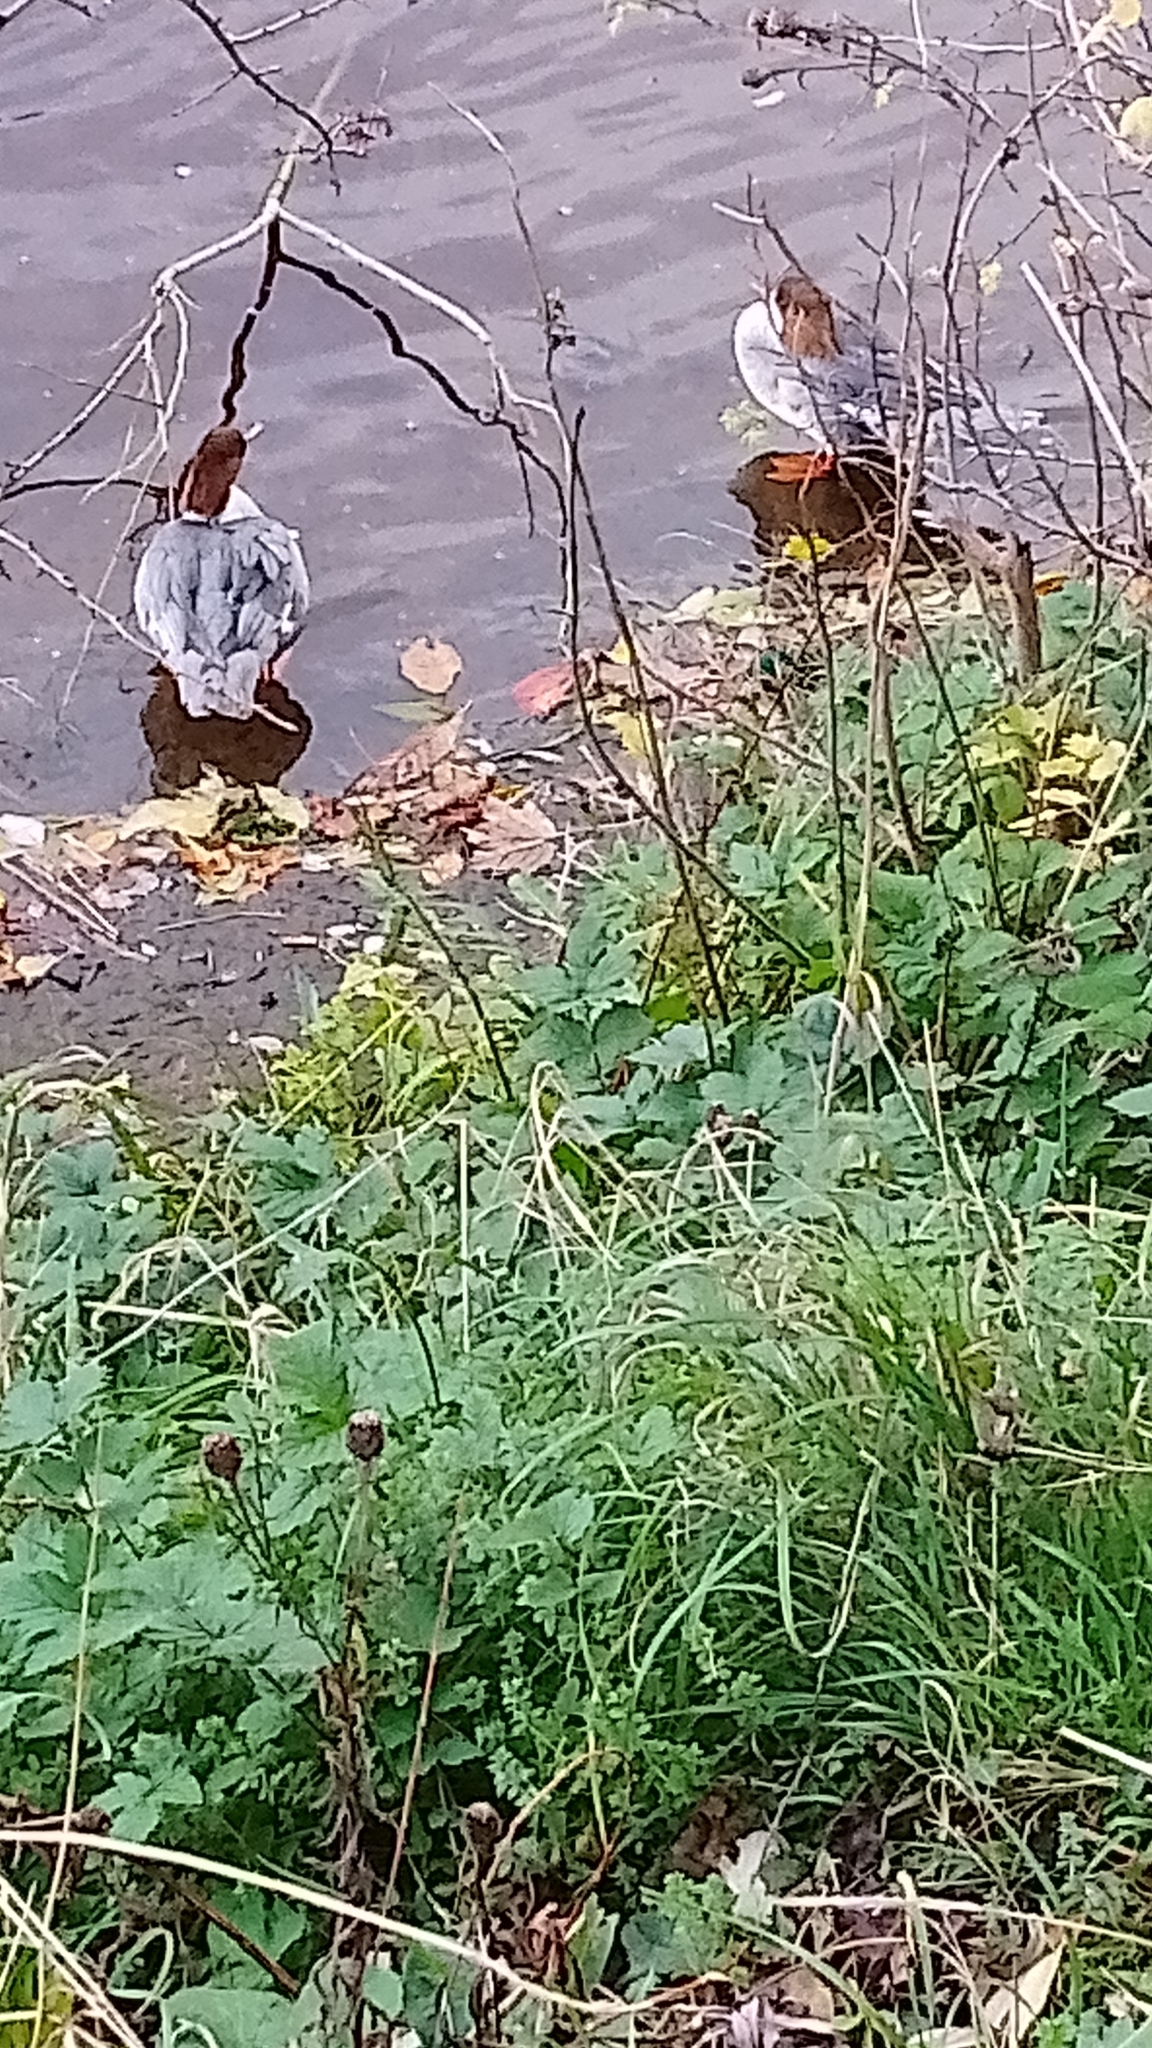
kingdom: Animalia
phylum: Chordata
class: Aves
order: Anseriformes
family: Anatidae
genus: Mergus
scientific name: Mergus merganser
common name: Common merganser
